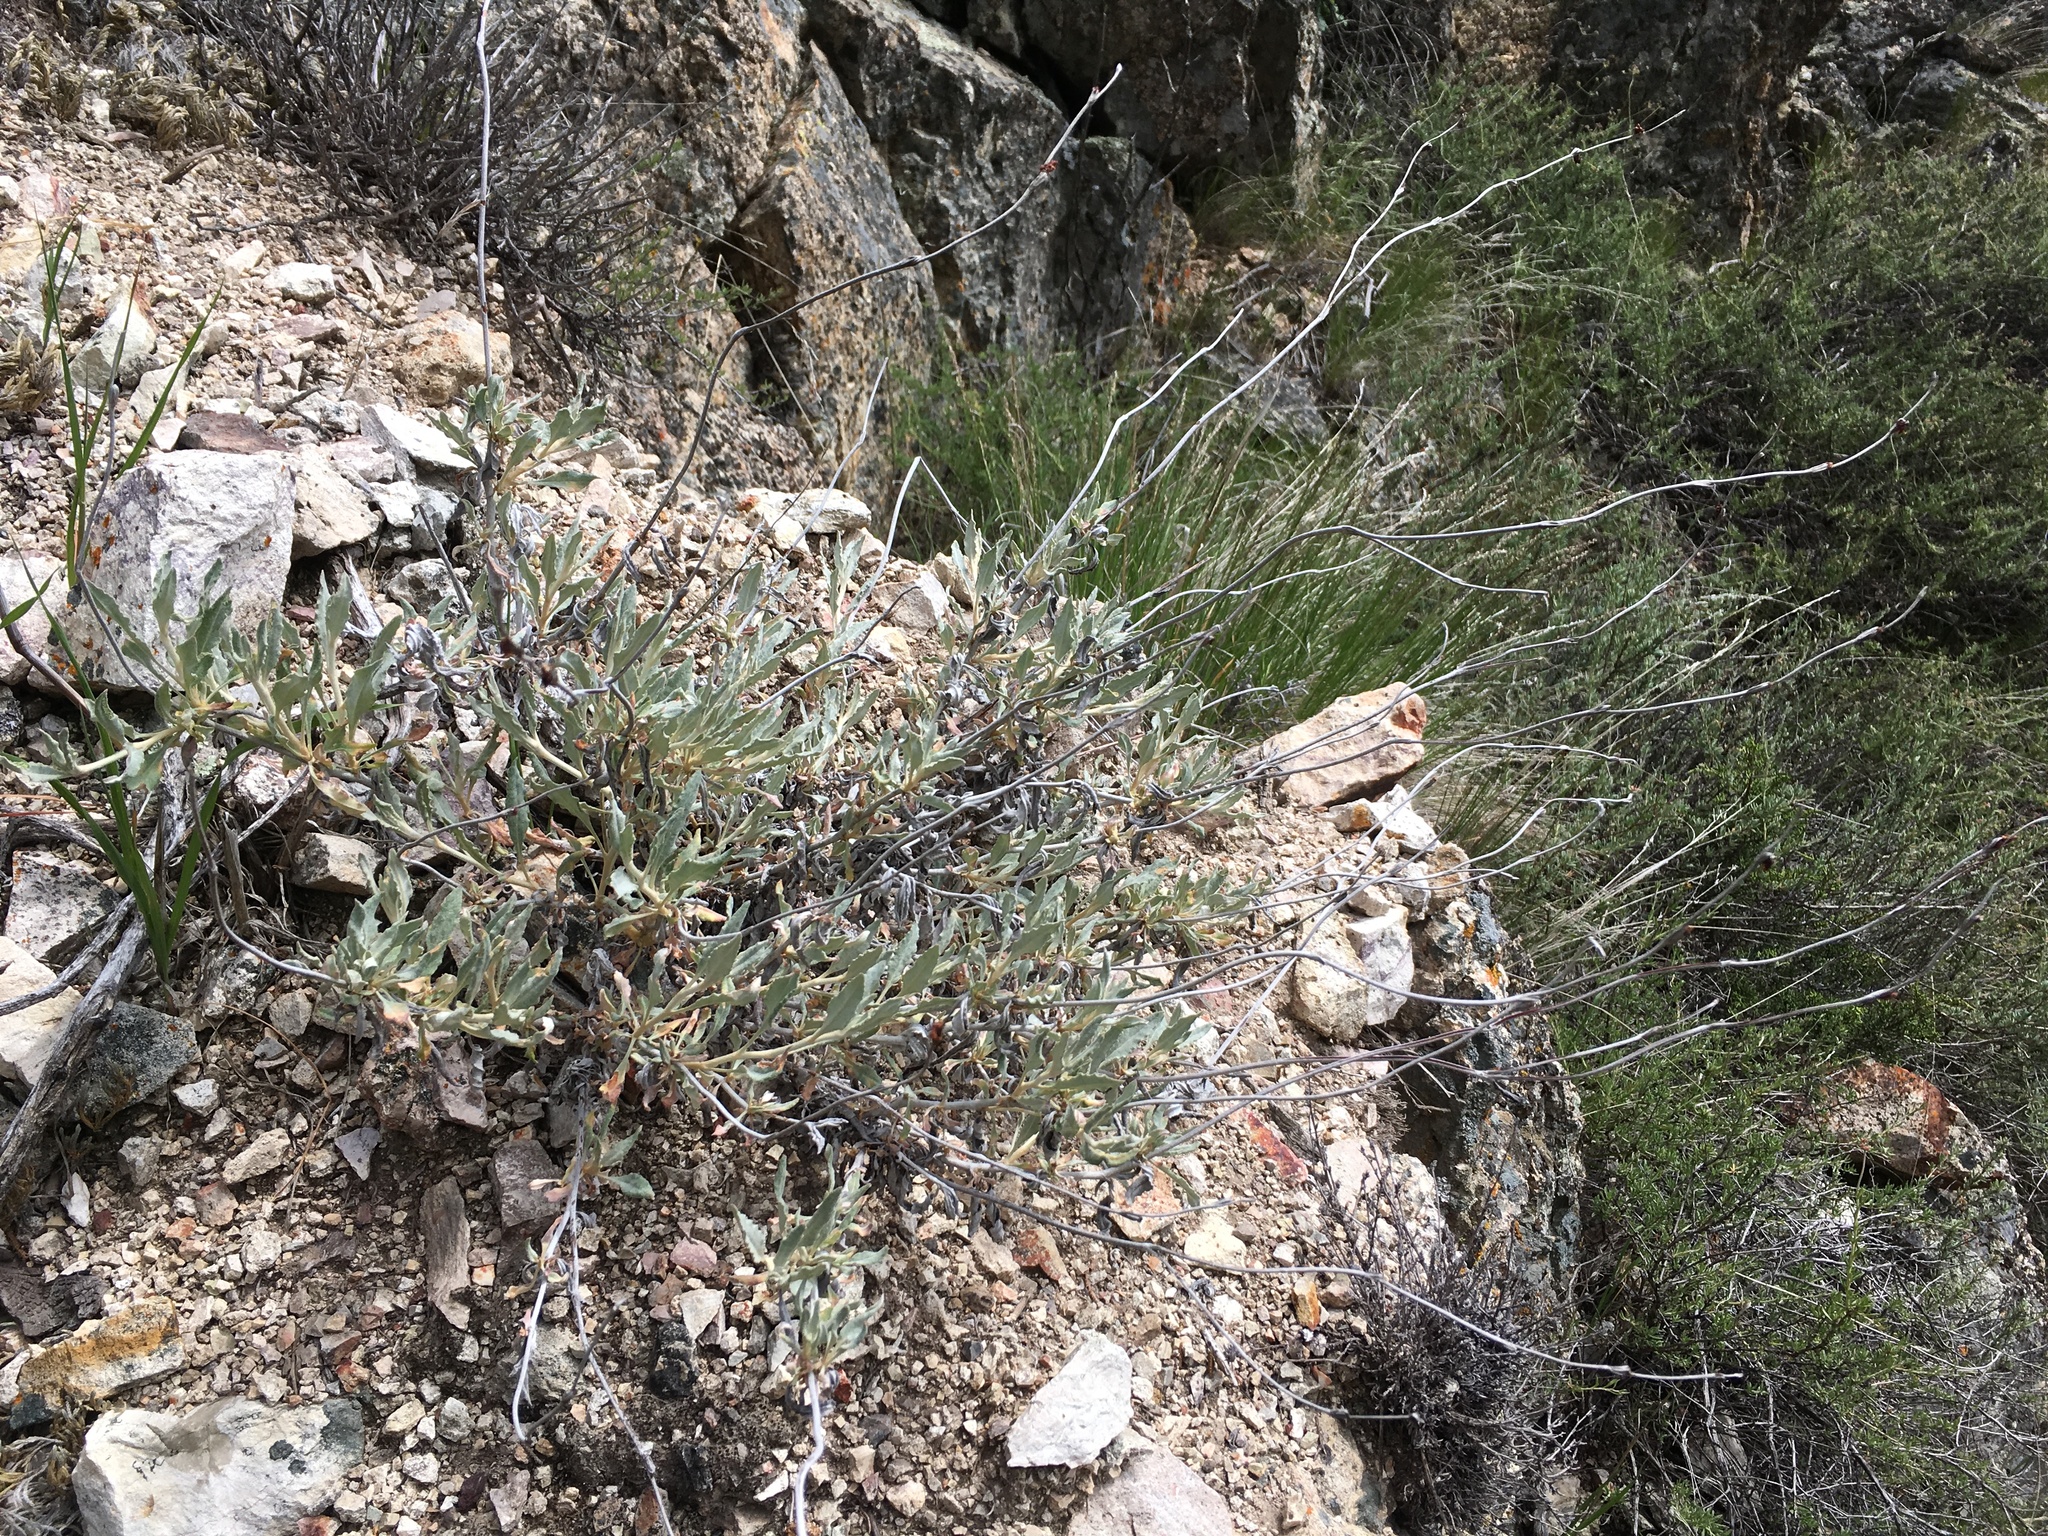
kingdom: Plantae
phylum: Tracheophyta
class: Magnoliopsida
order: Caryophyllales
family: Polygonaceae
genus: Eriogonum
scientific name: Eriogonum elongatum
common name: Long-stem wild buckwheat
